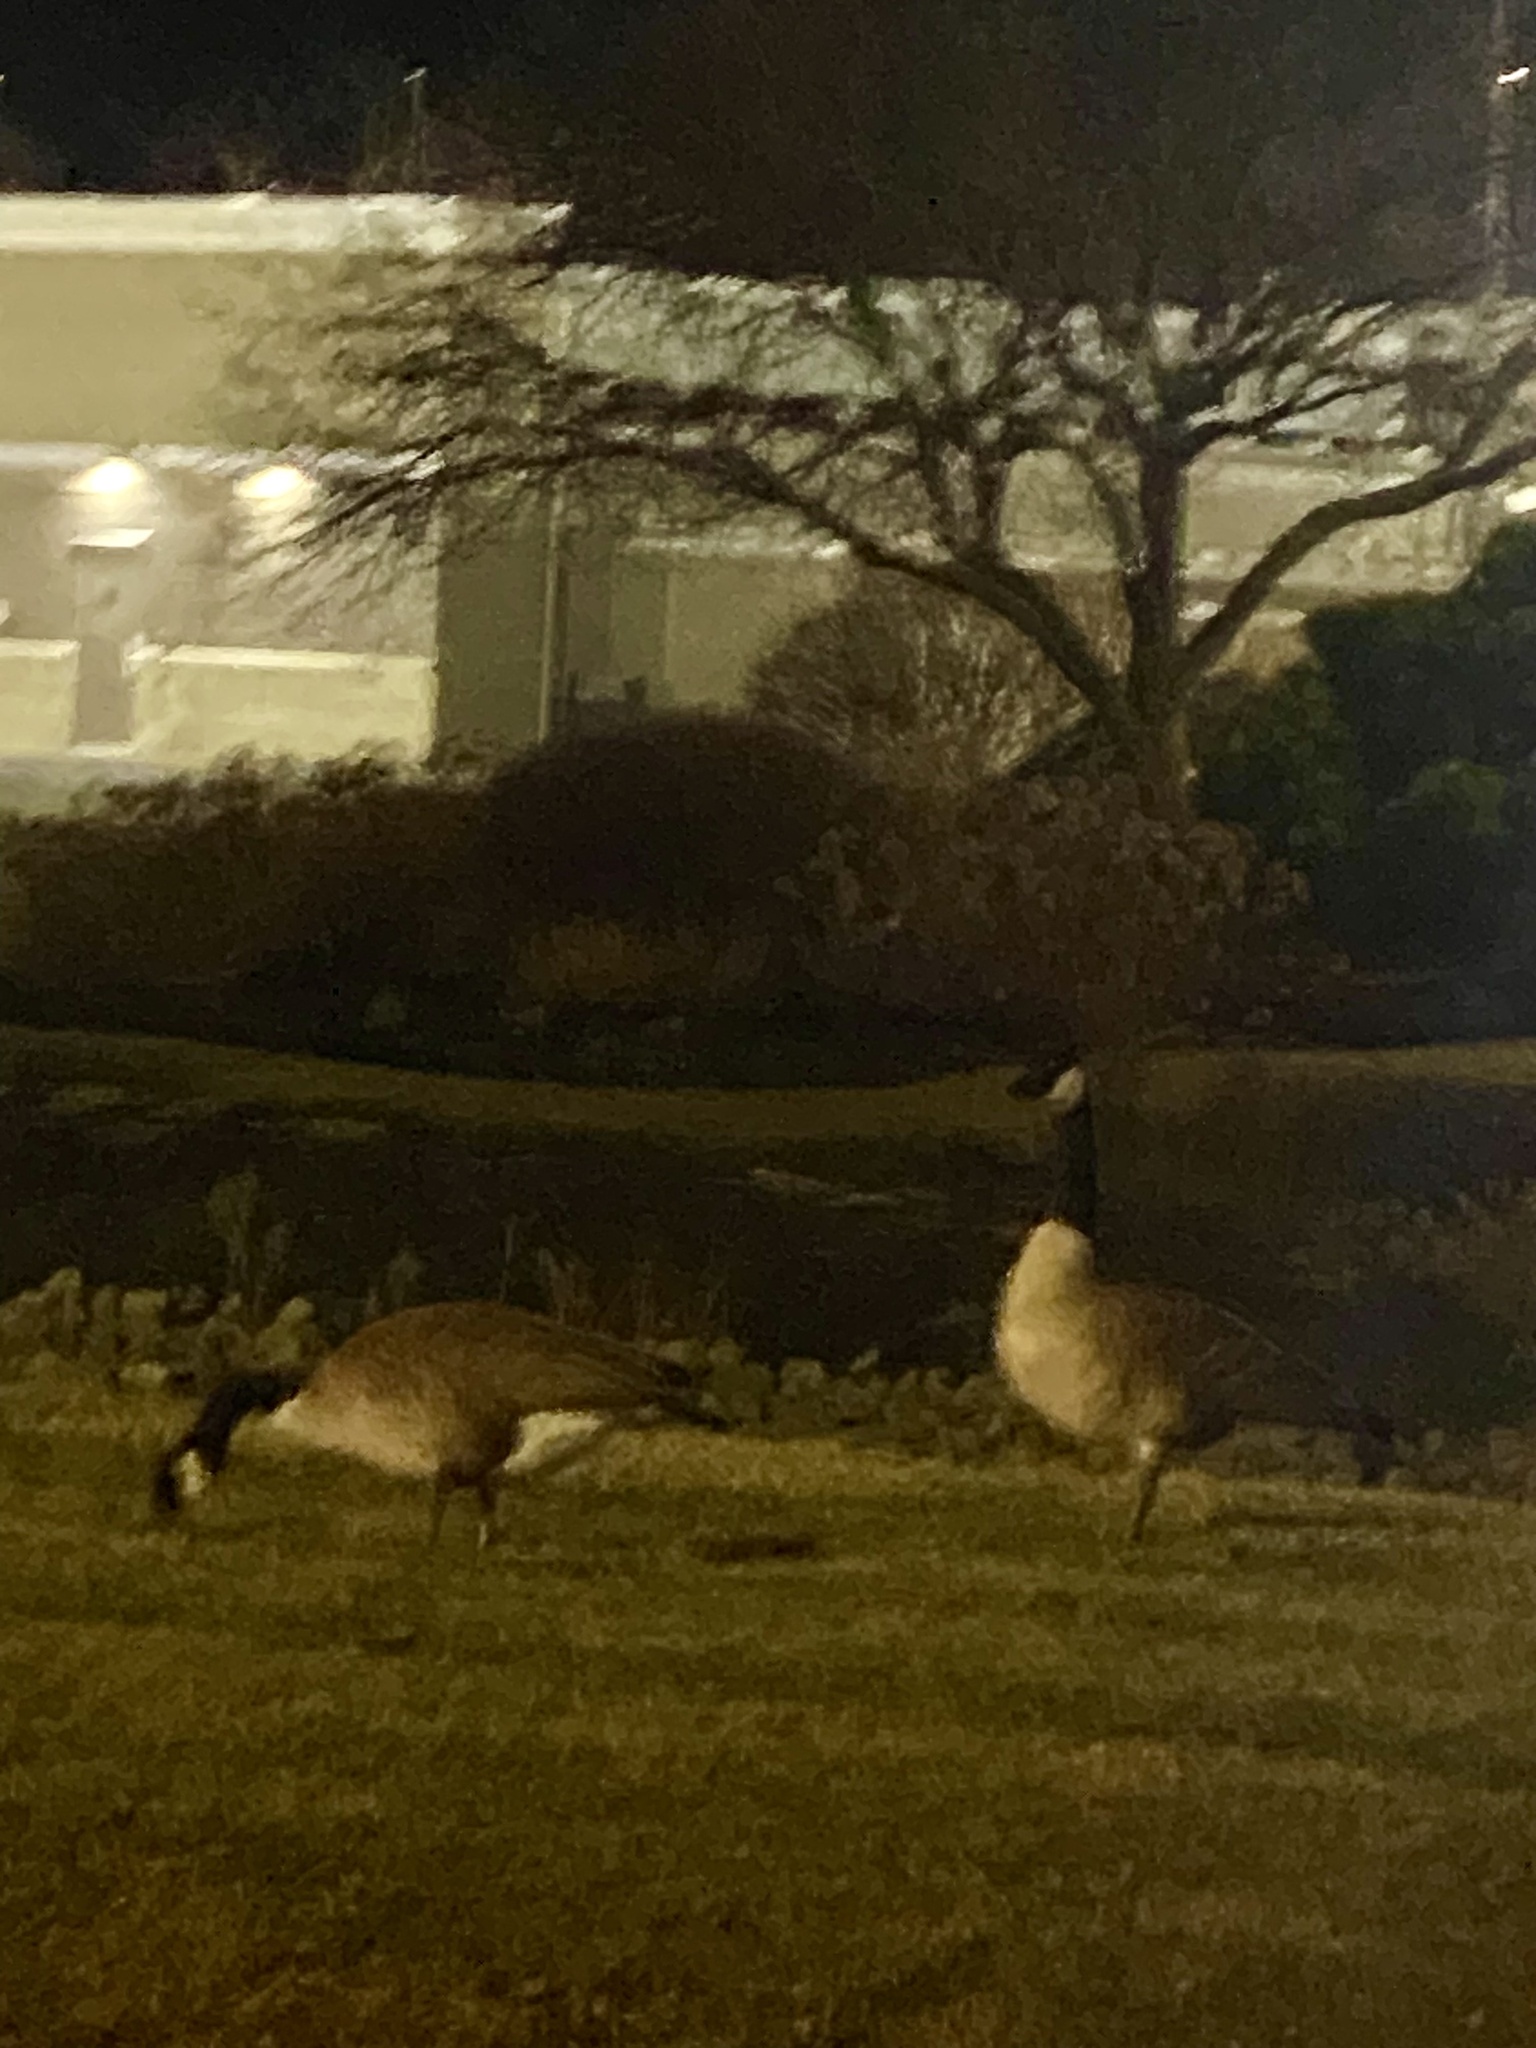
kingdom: Animalia
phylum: Chordata
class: Aves
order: Anseriformes
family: Anatidae
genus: Branta
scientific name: Branta canadensis
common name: Canada goose
